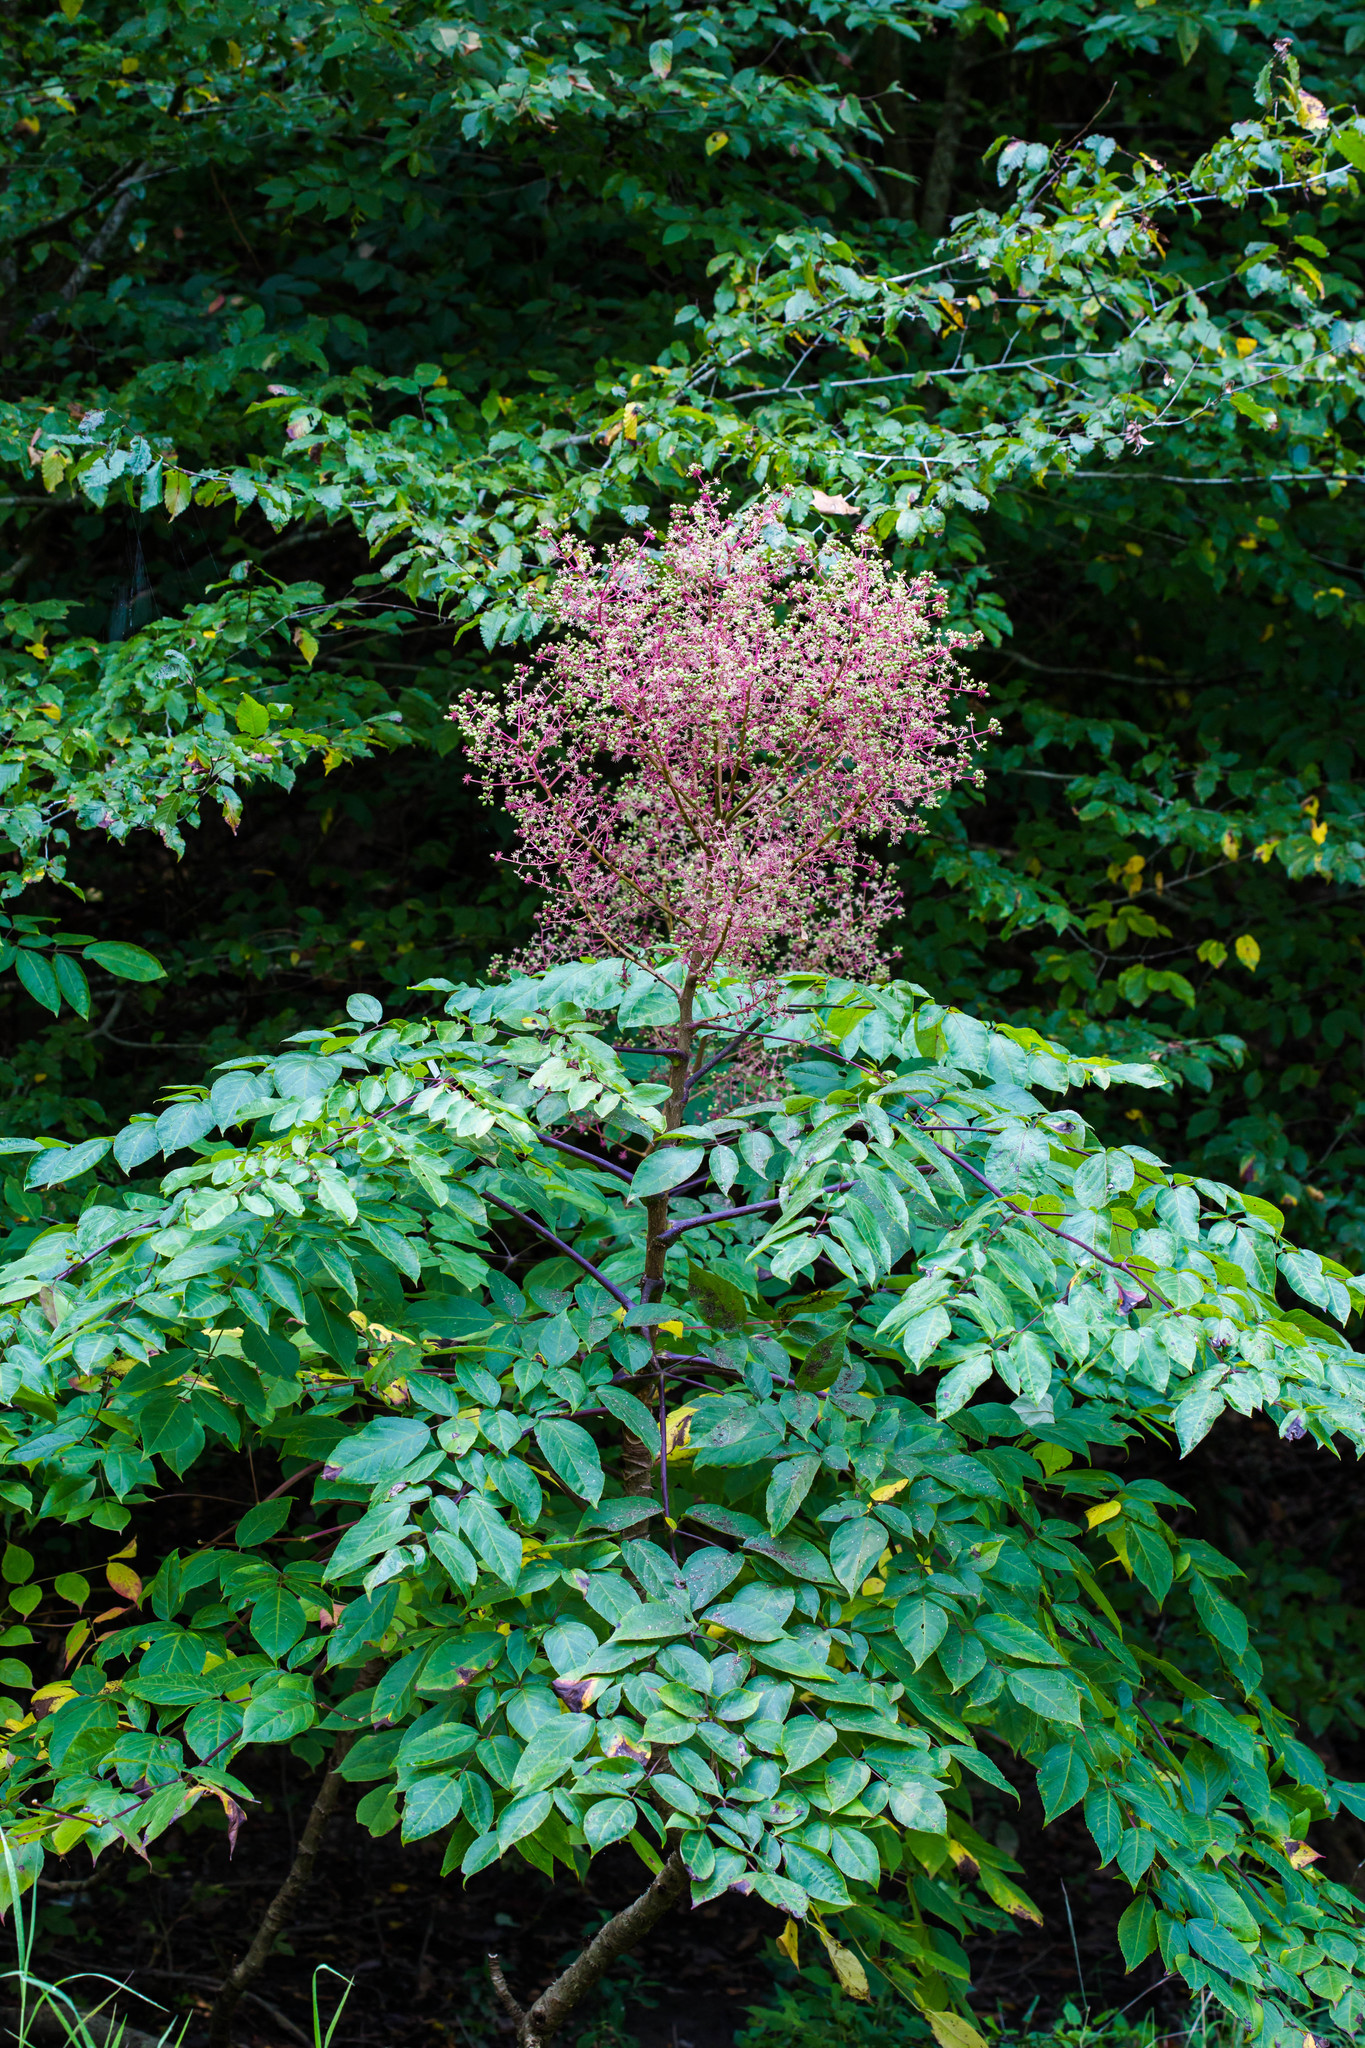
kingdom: Plantae
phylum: Tracheophyta
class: Magnoliopsida
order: Apiales
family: Araliaceae
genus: Aralia
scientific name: Aralia spinosa
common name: Hercules'-club
